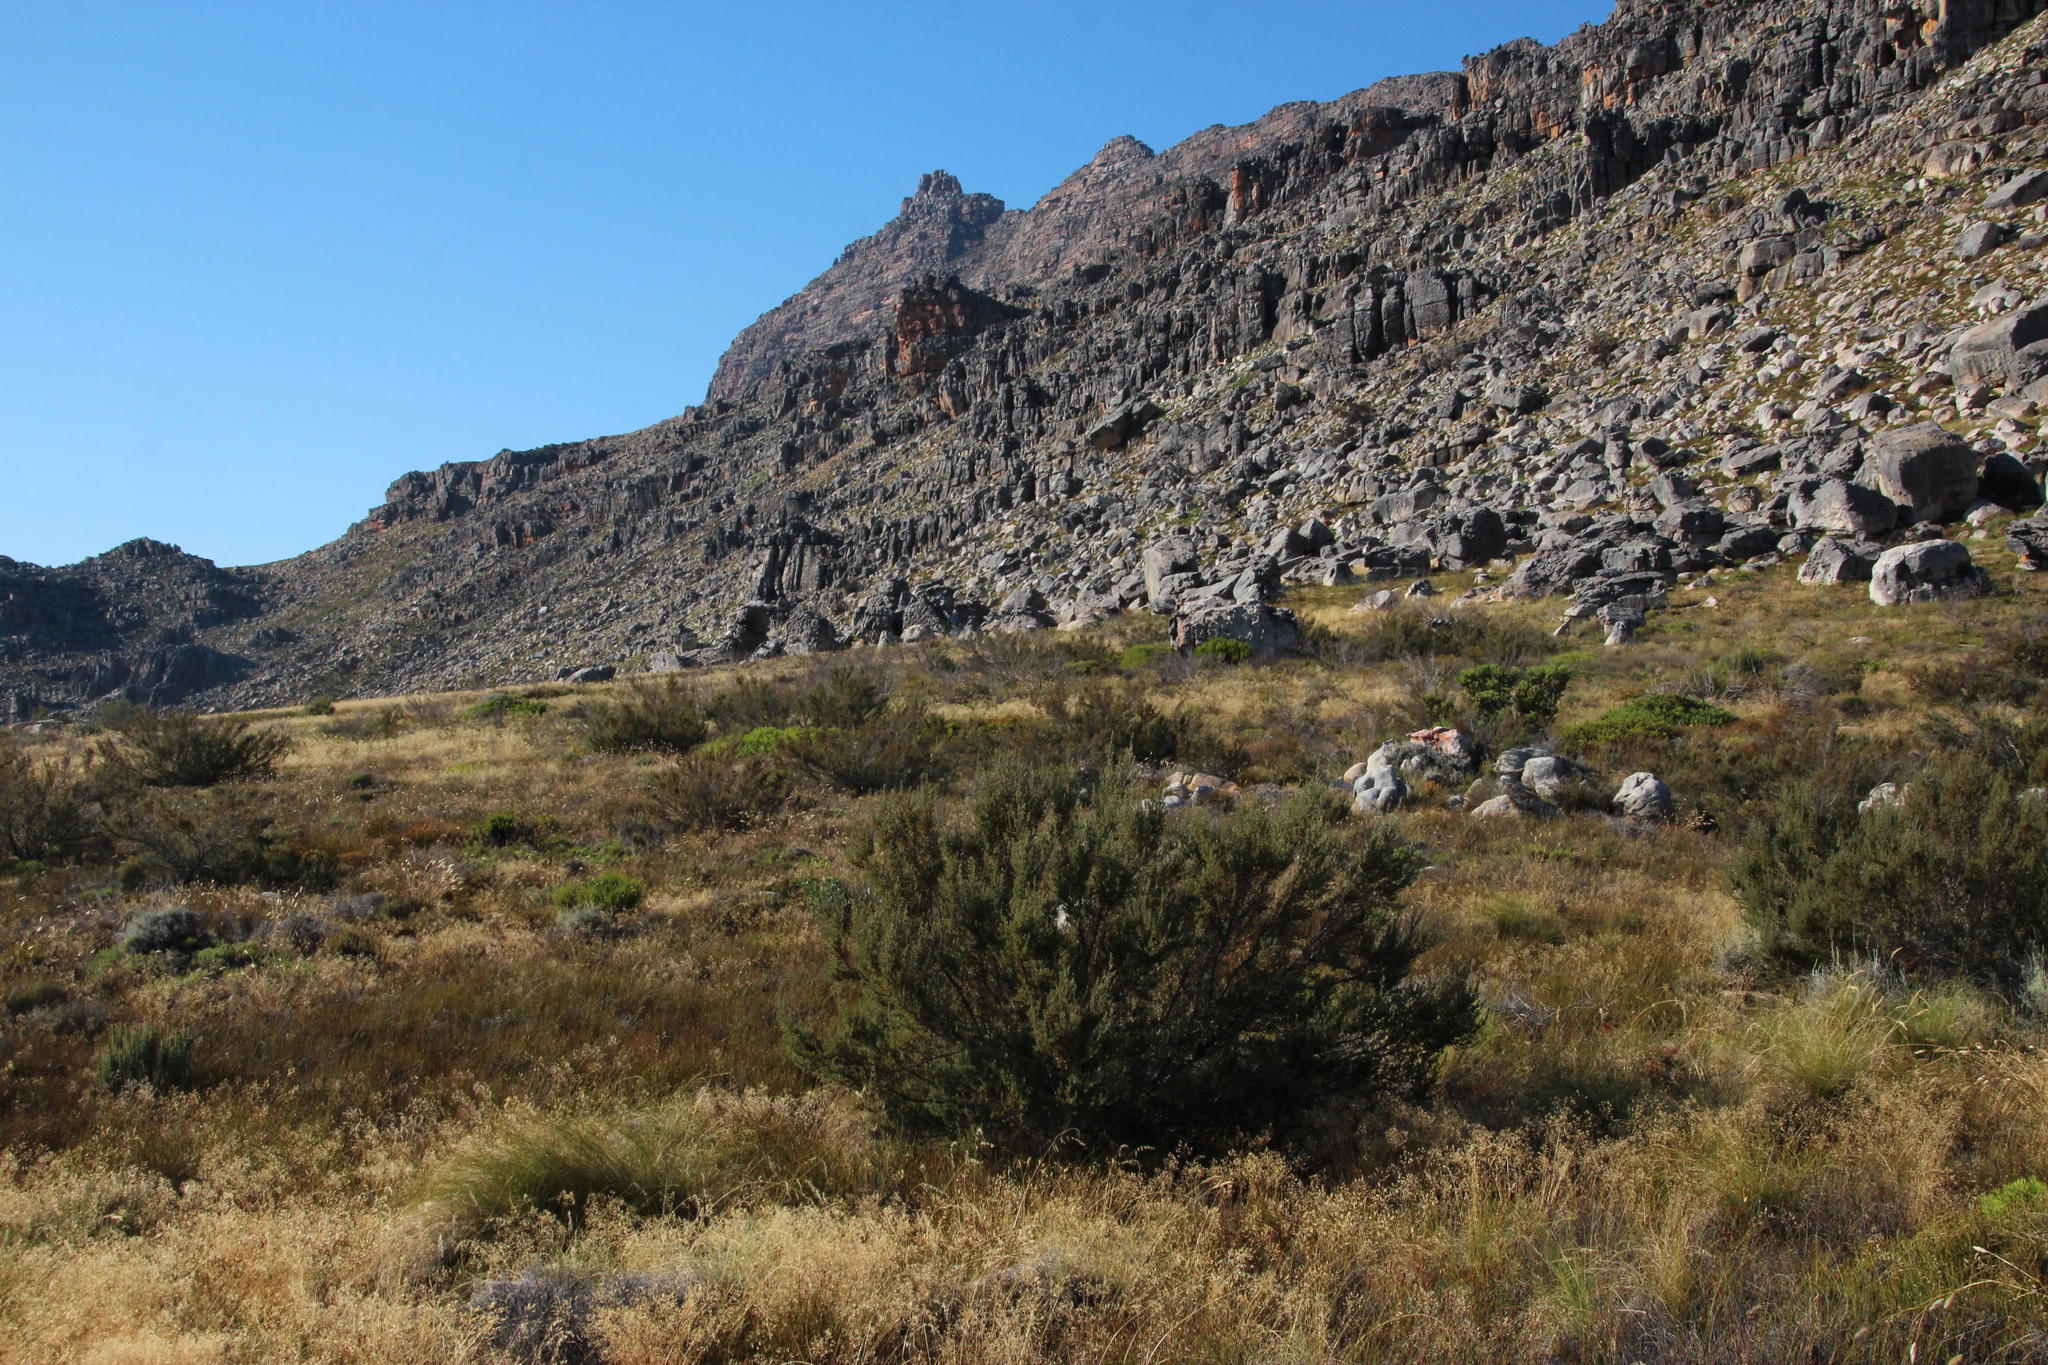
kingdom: Plantae
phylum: Tracheophyta
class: Magnoliopsida
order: Rosales
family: Rosaceae
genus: Cliffortia
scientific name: Cliffortia ruscifolia
